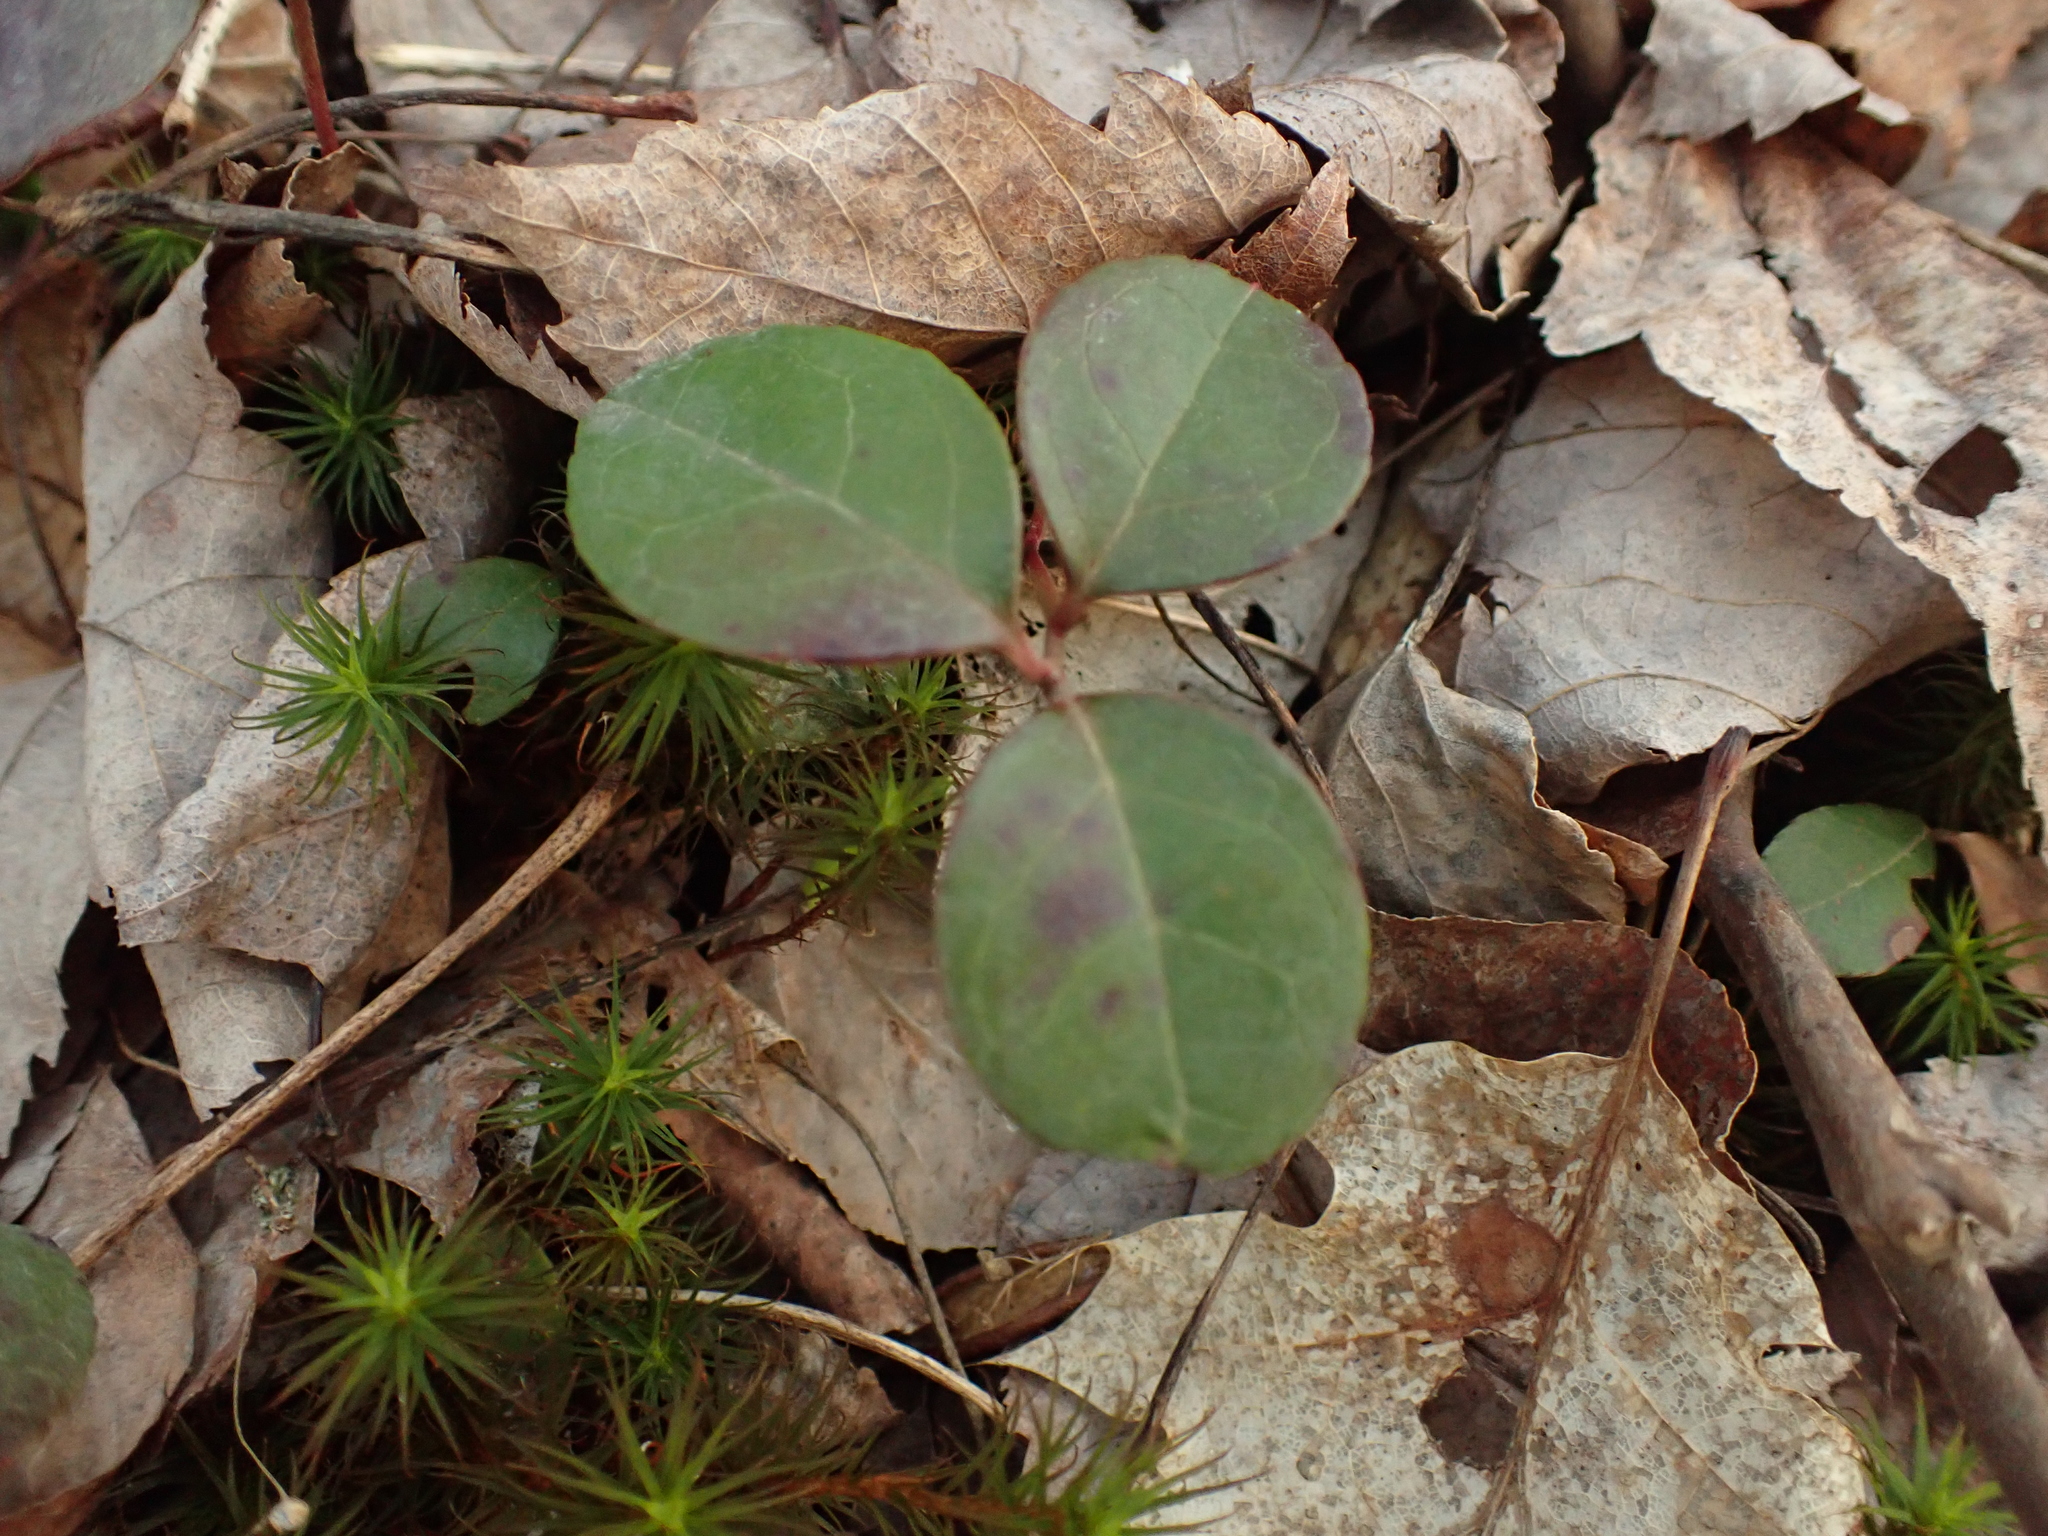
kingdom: Plantae
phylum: Tracheophyta
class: Magnoliopsida
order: Ericales
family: Ericaceae
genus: Gaultheria
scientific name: Gaultheria procumbens
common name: Checkerberry
